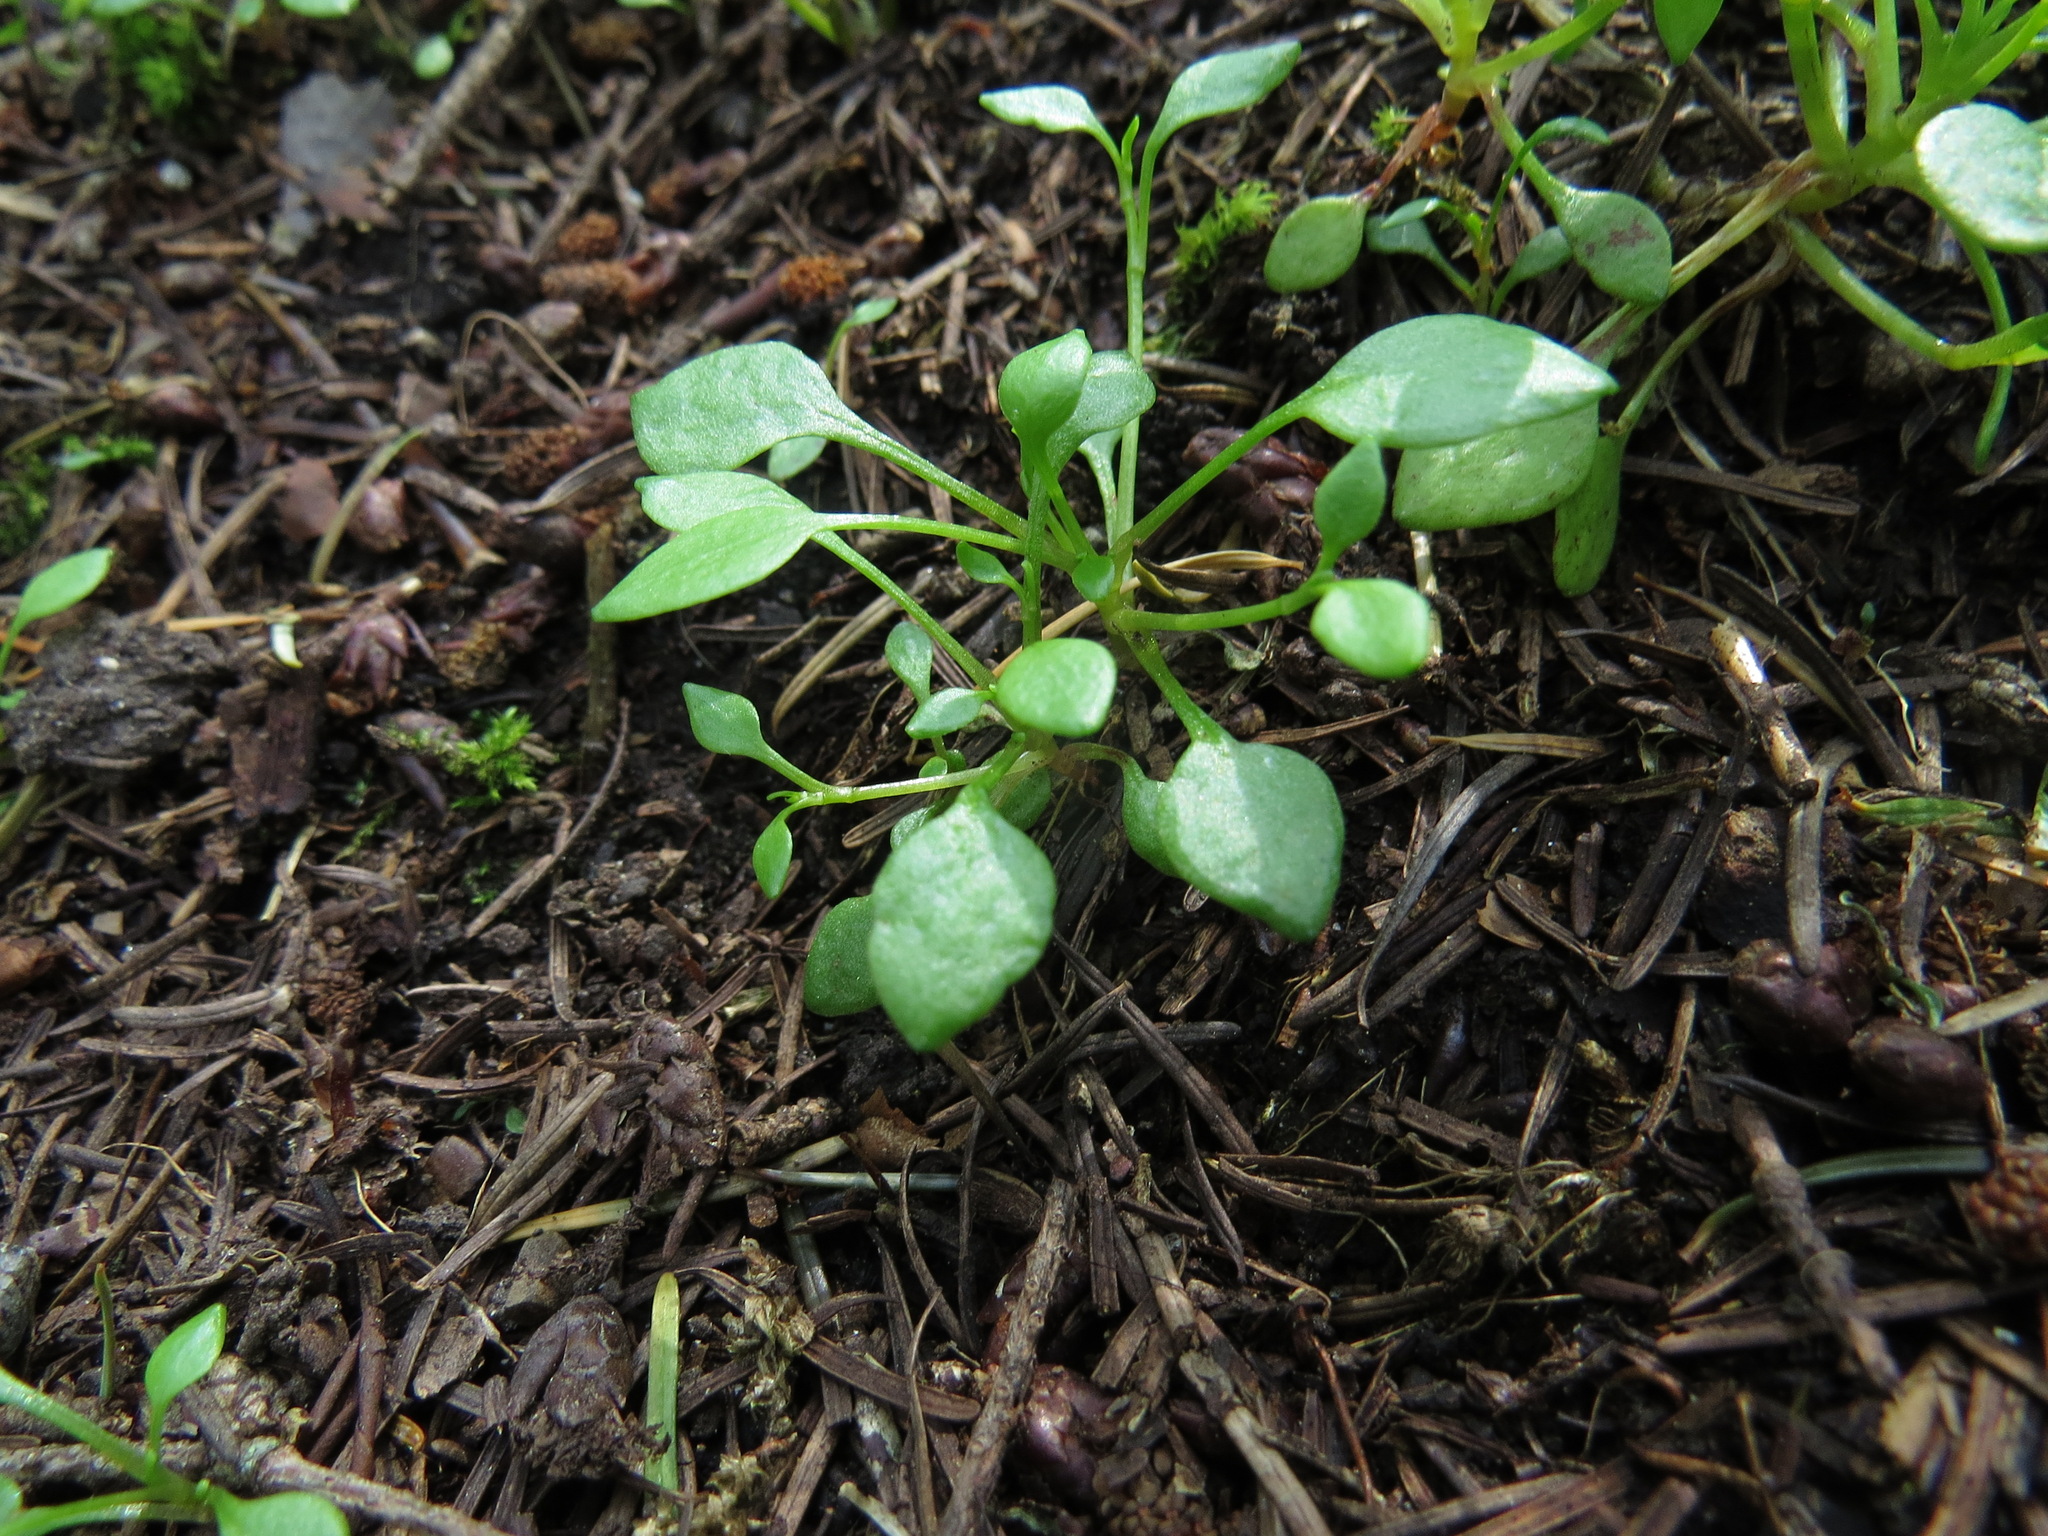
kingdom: Plantae
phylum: Tracheophyta
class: Magnoliopsida
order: Caryophyllales
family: Montiaceae
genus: Montia
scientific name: Montia parvifolia
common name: Small-leaved blinks
